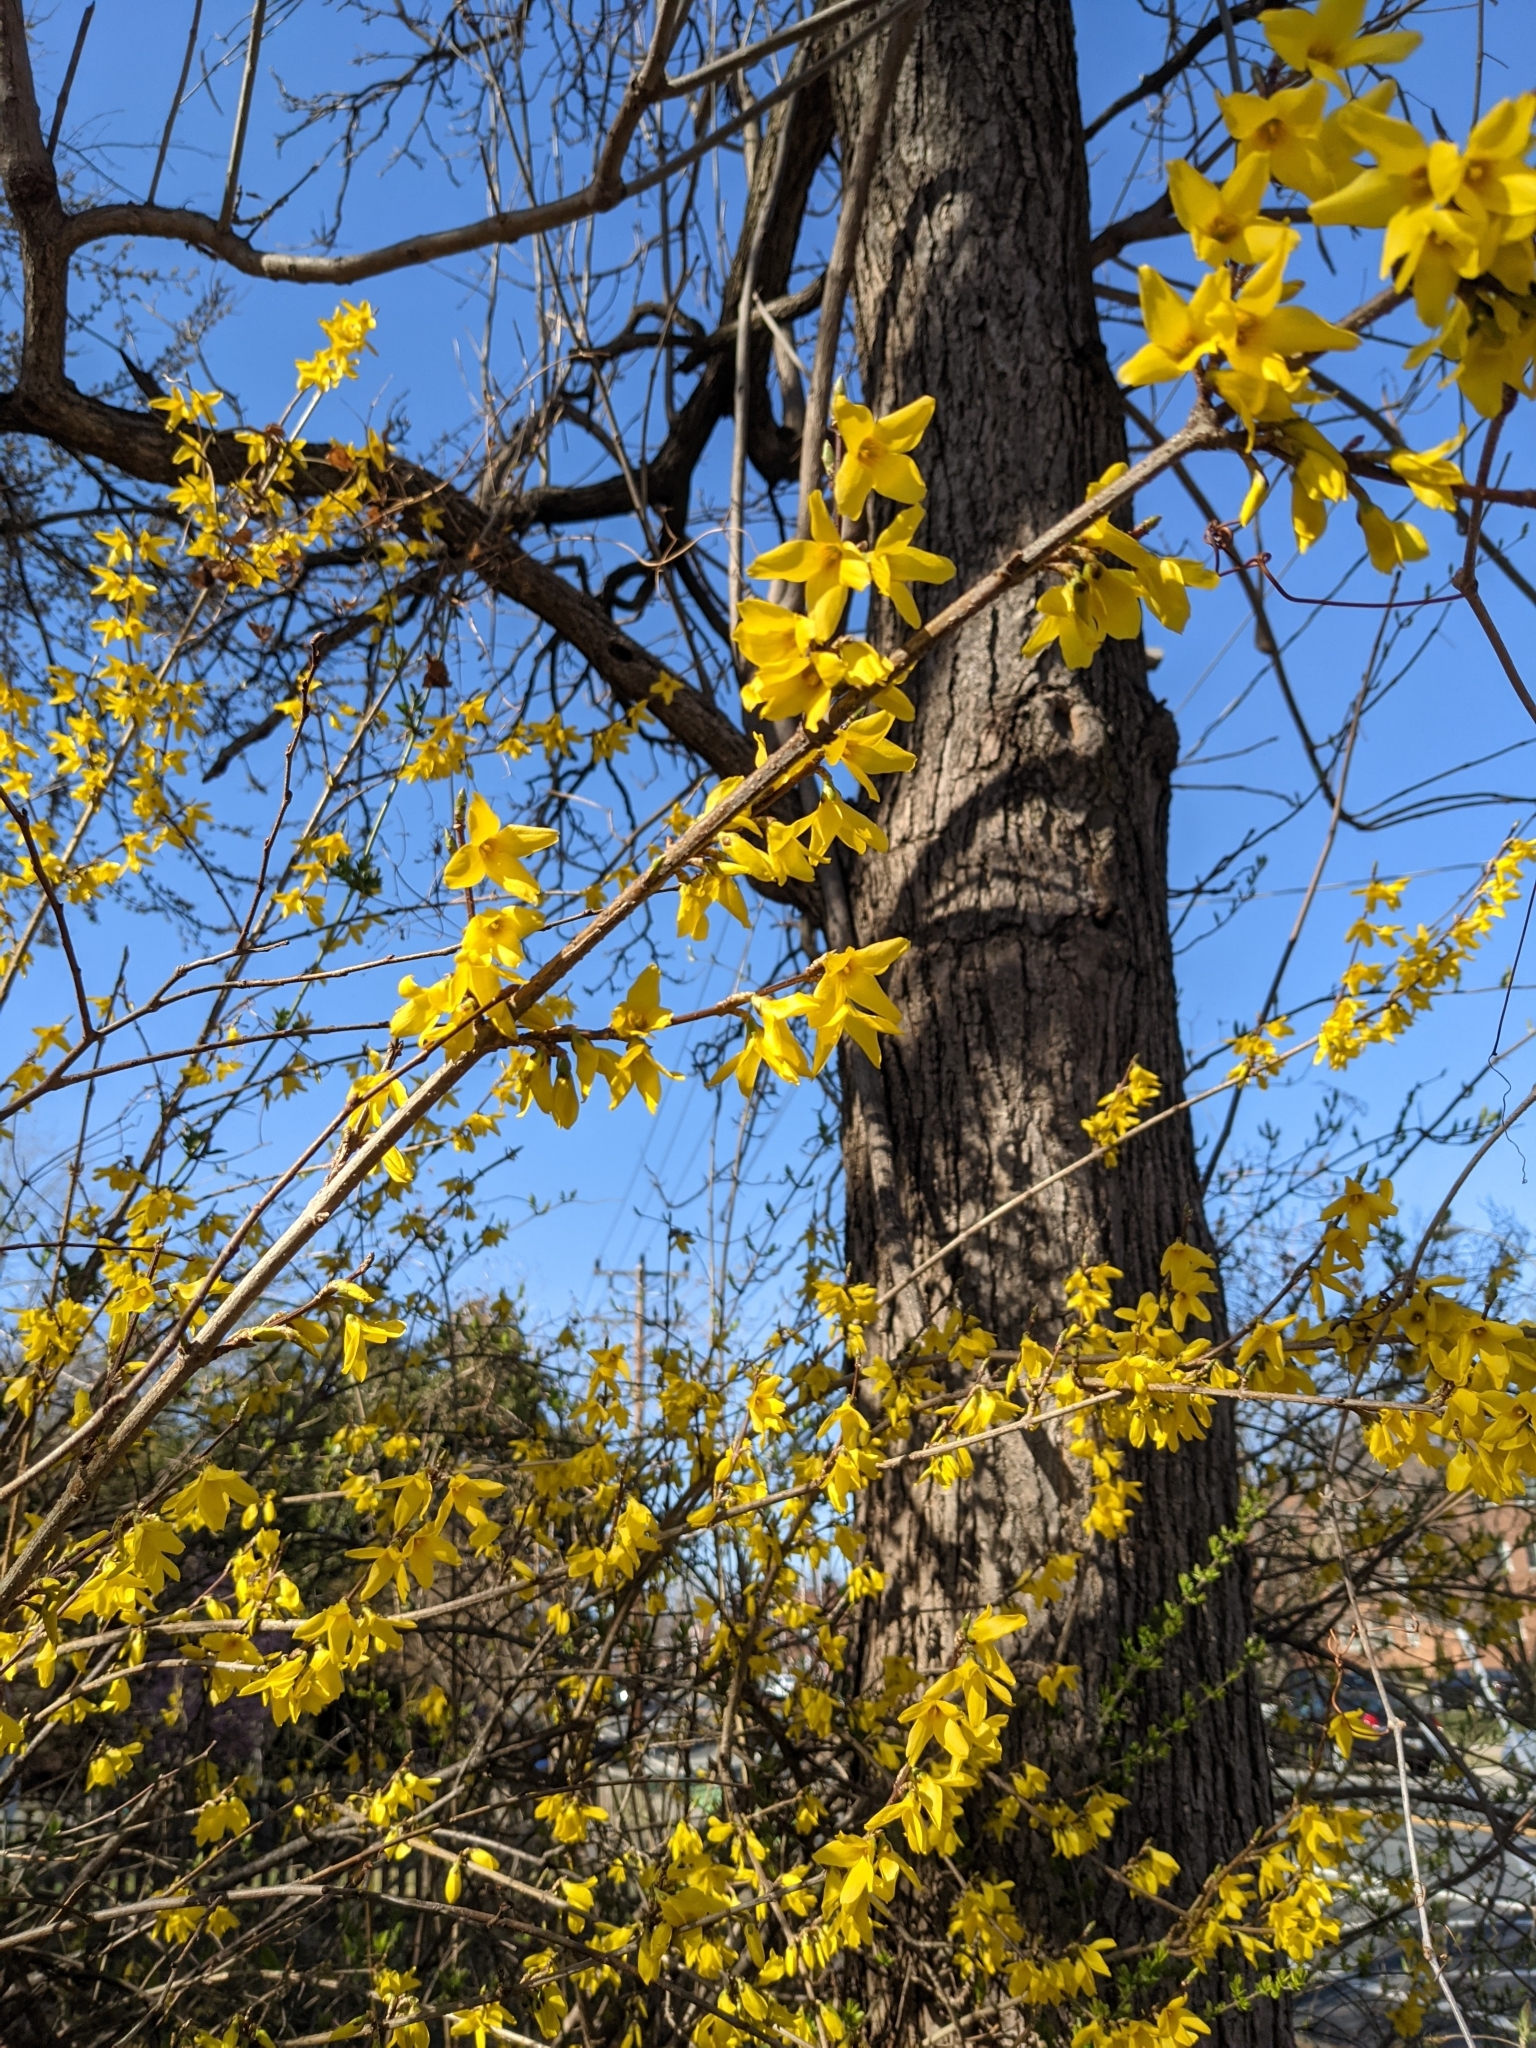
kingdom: Plantae
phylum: Tracheophyta
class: Magnoliopsida
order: Lamiales
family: Oleaceae
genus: Forsythia
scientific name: Forsythia intermedia
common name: Forsythia
